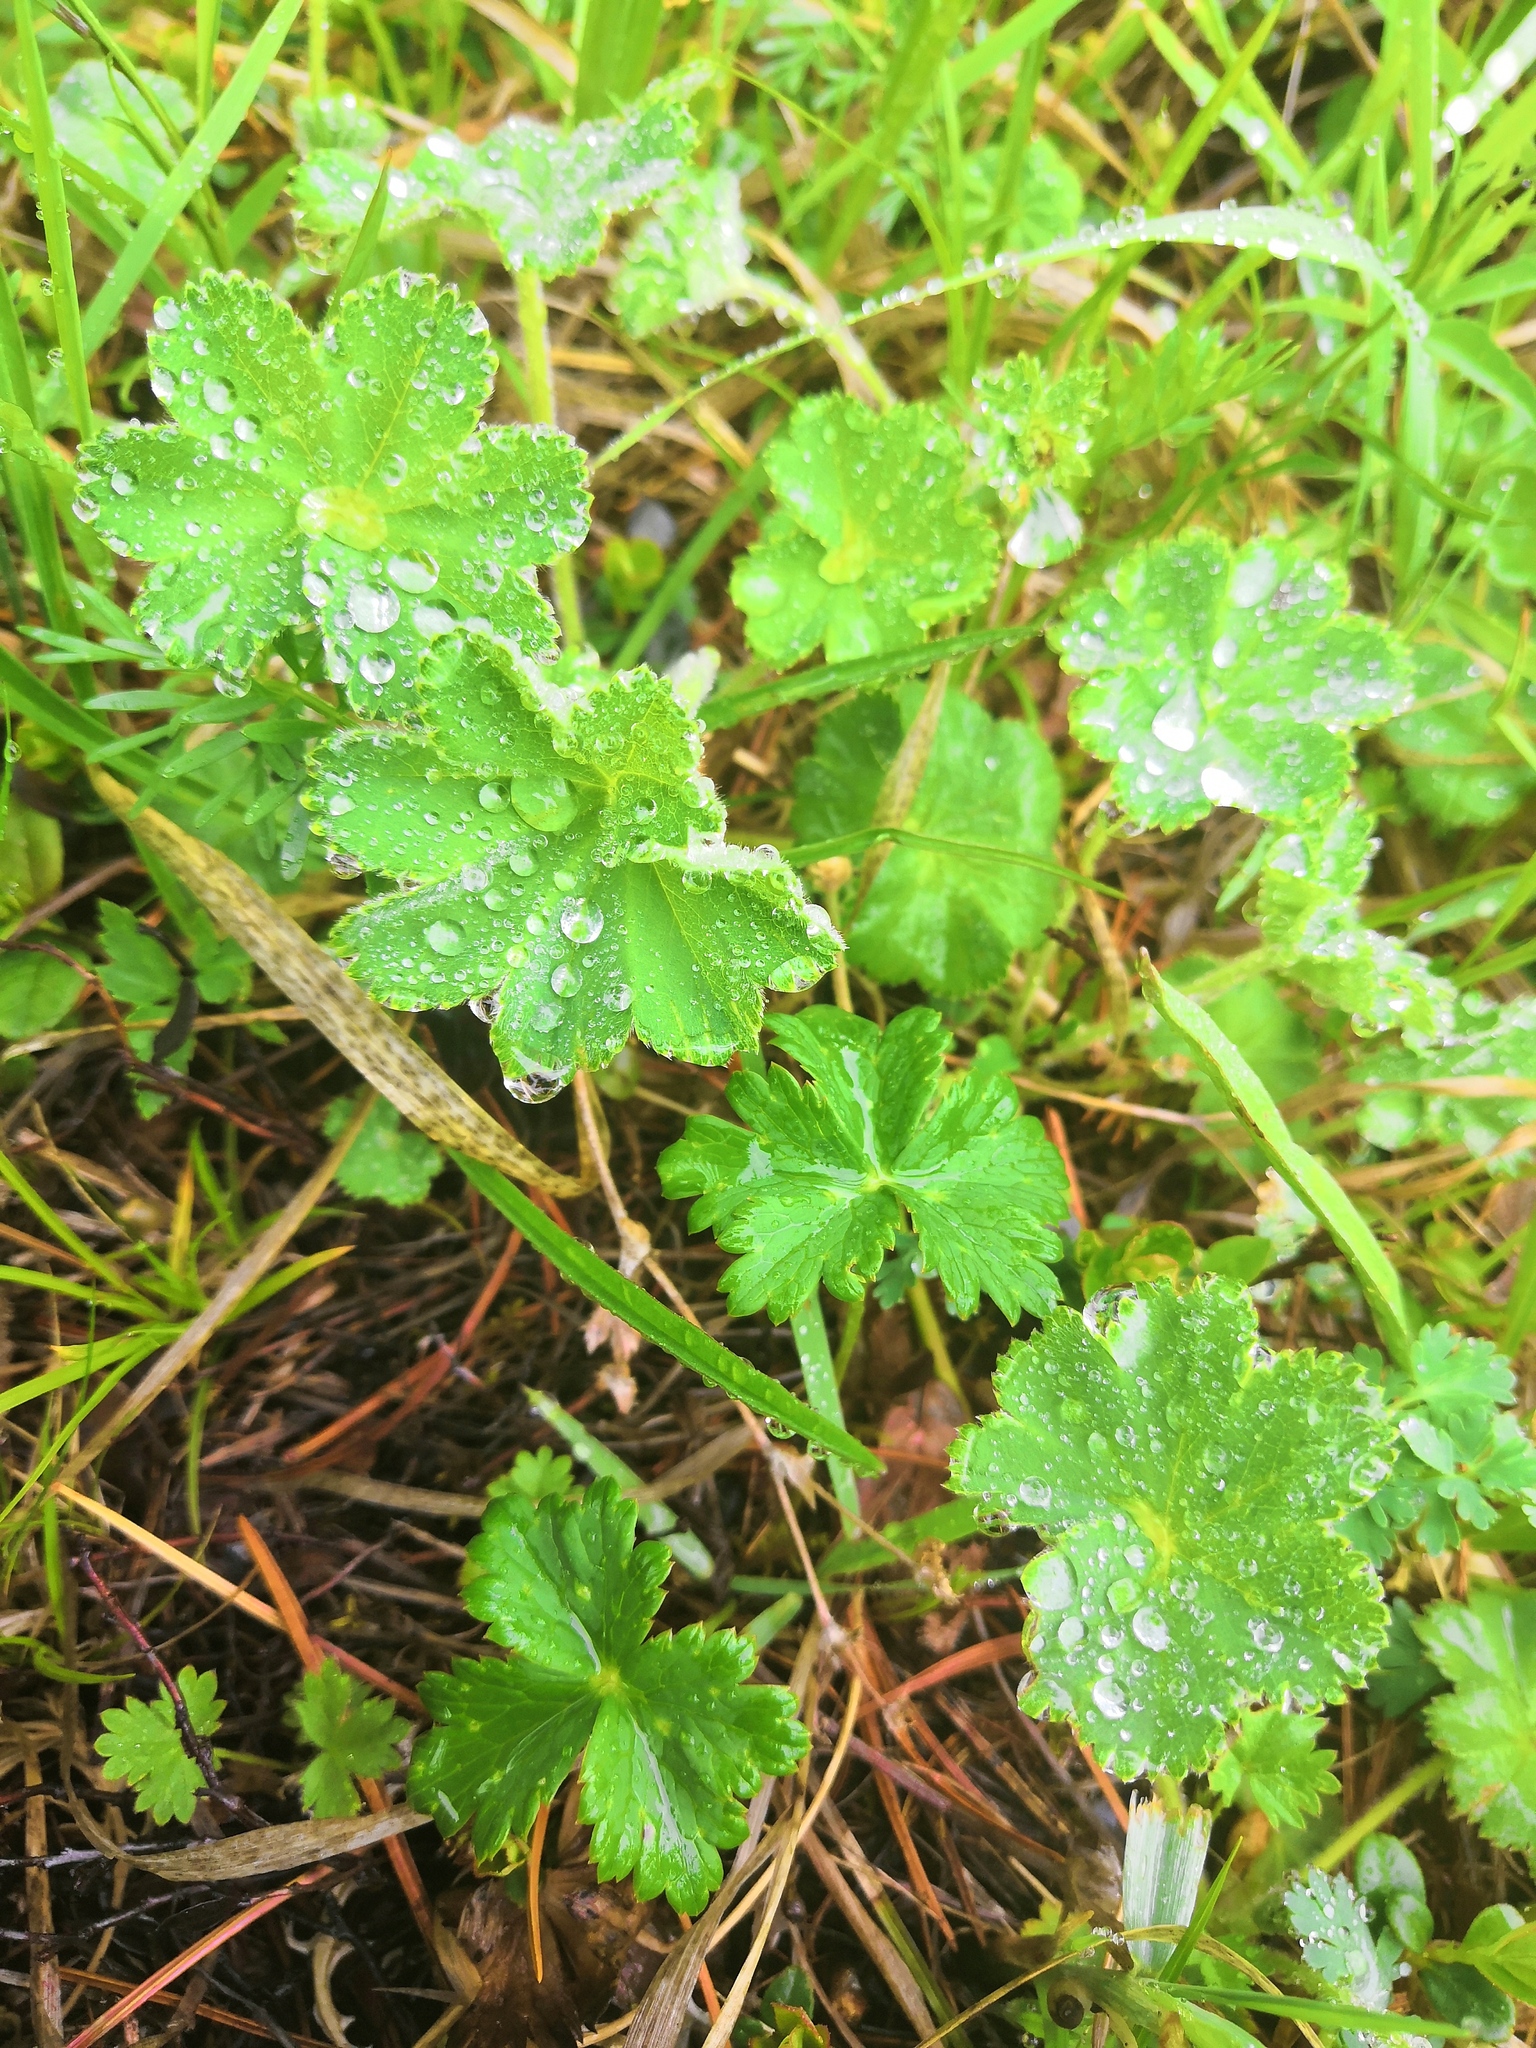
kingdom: Plantae
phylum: Tracheophyta
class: Magnoliopsida
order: Rosales
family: Rosaceae
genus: Alchemilla
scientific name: Alchemilla monticola
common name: Hairy lady's mantle
